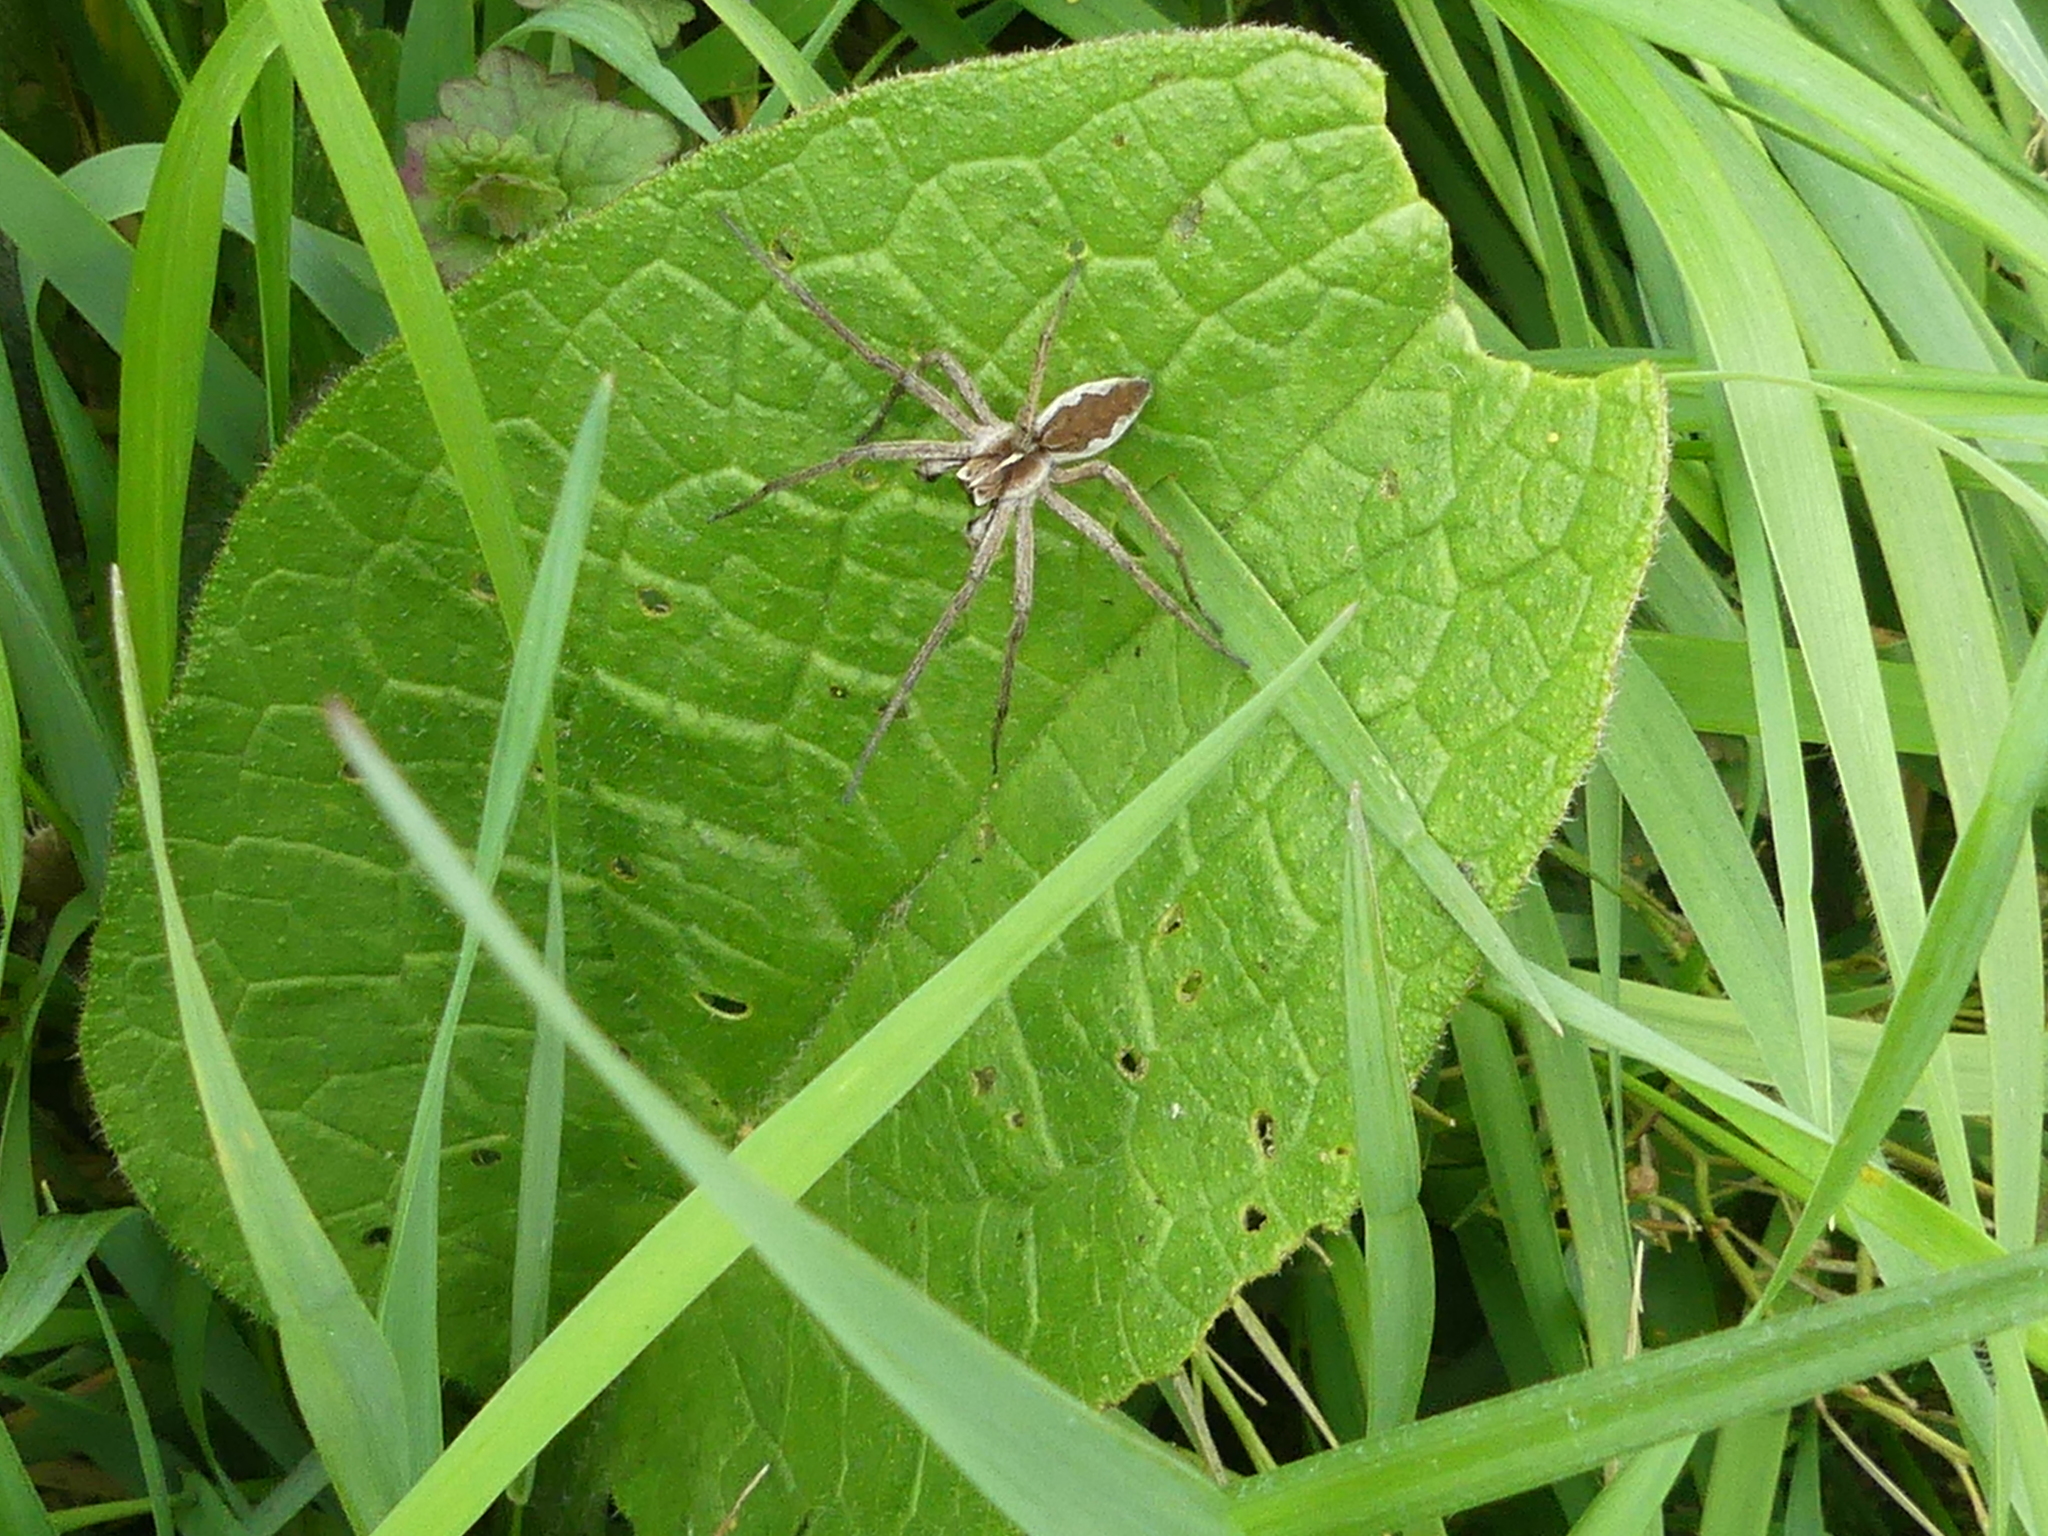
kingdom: Animalia
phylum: Arthropoda
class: Arachnida
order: Araneae
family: Pisauridae
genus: Pisaura
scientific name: Pisaura mirabilis
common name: Tent spider
